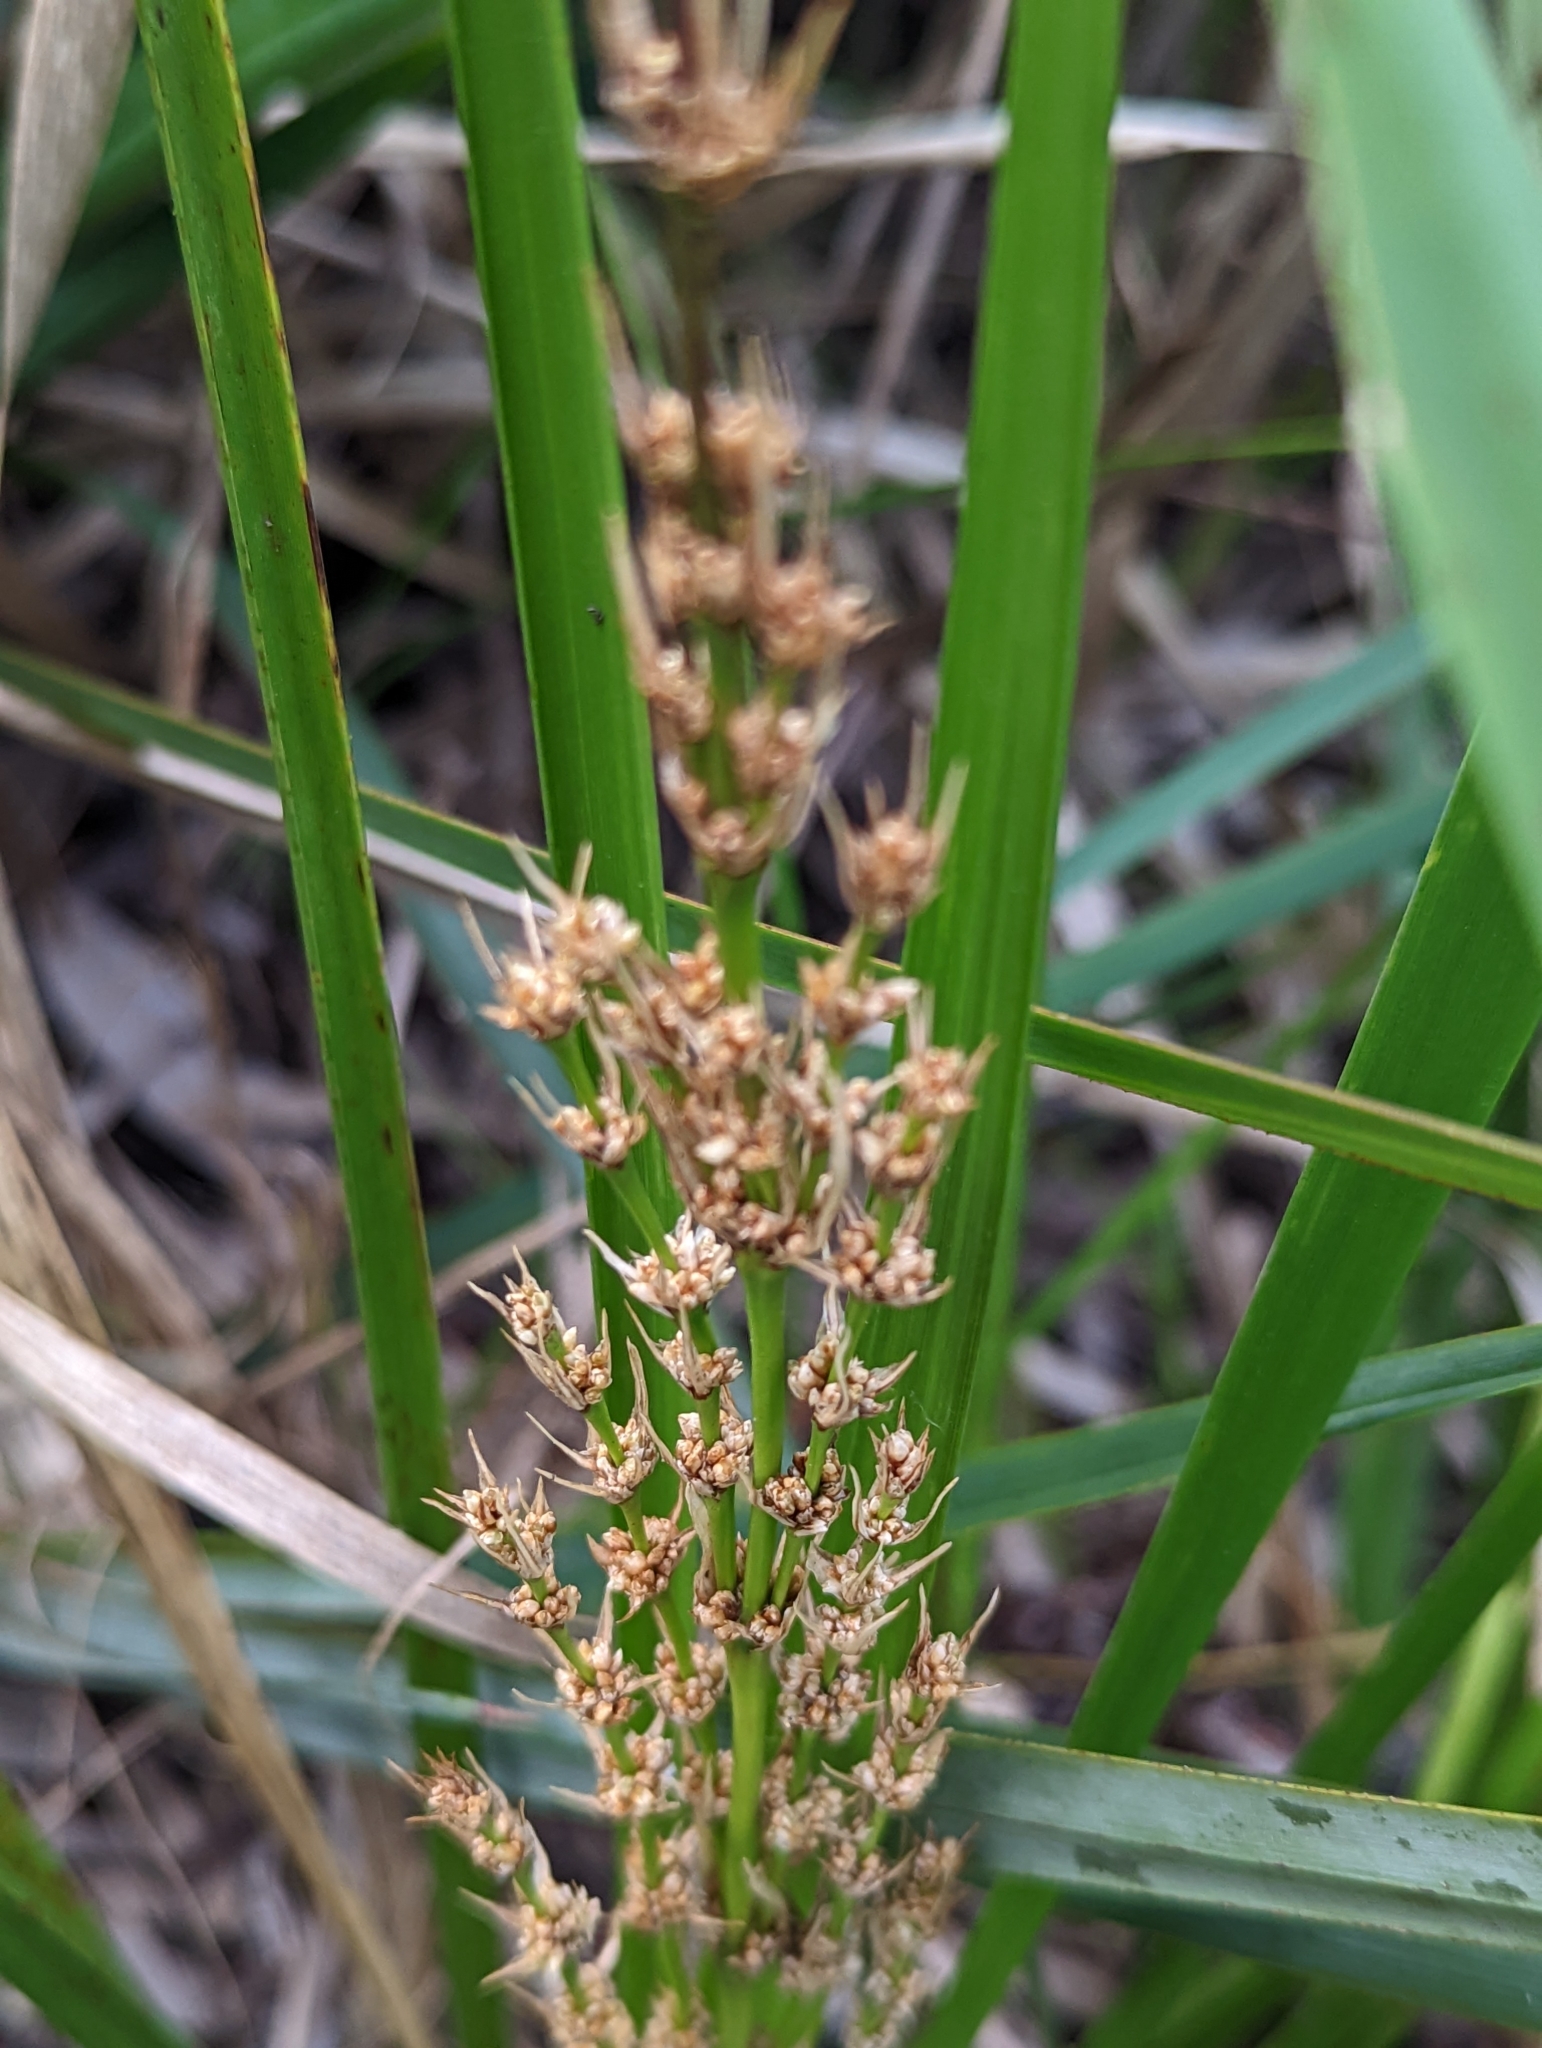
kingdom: Plantae
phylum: Tracheophyta
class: Liliopsida
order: Asparagales
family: Asparagaceae
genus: Lomandra
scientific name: Lomandra longifolia
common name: Longleaf mat-rush
